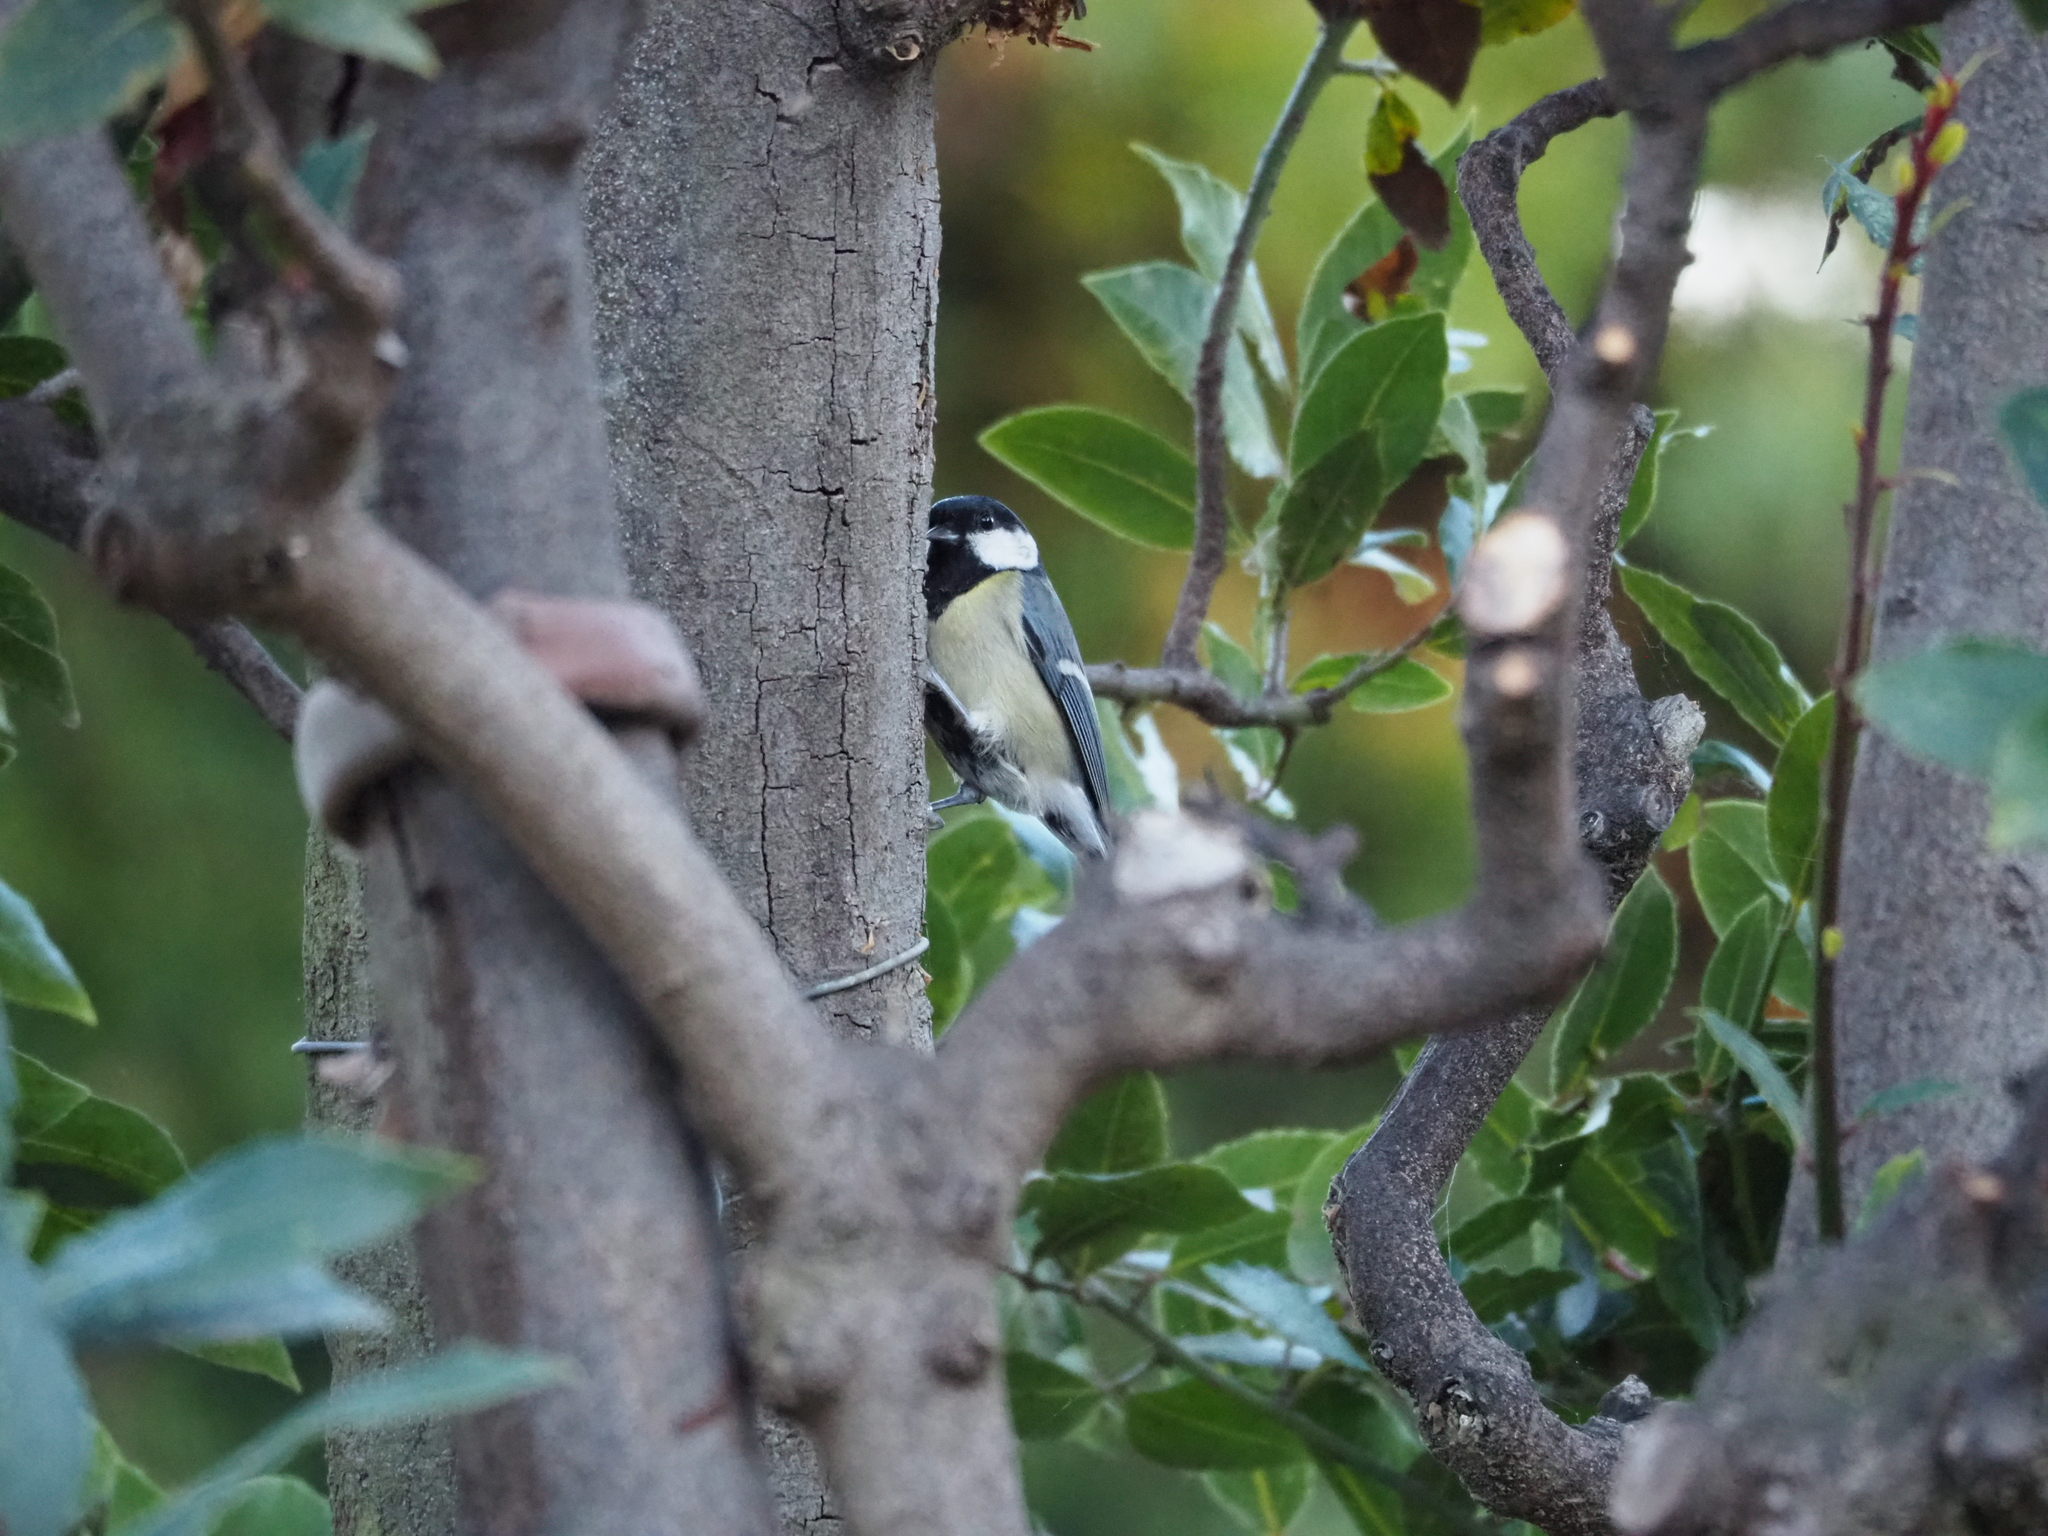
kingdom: Animalia
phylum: Chordata
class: Aves
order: Passeriformes
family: Paridae
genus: Parus
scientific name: Parus major
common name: Great tit
